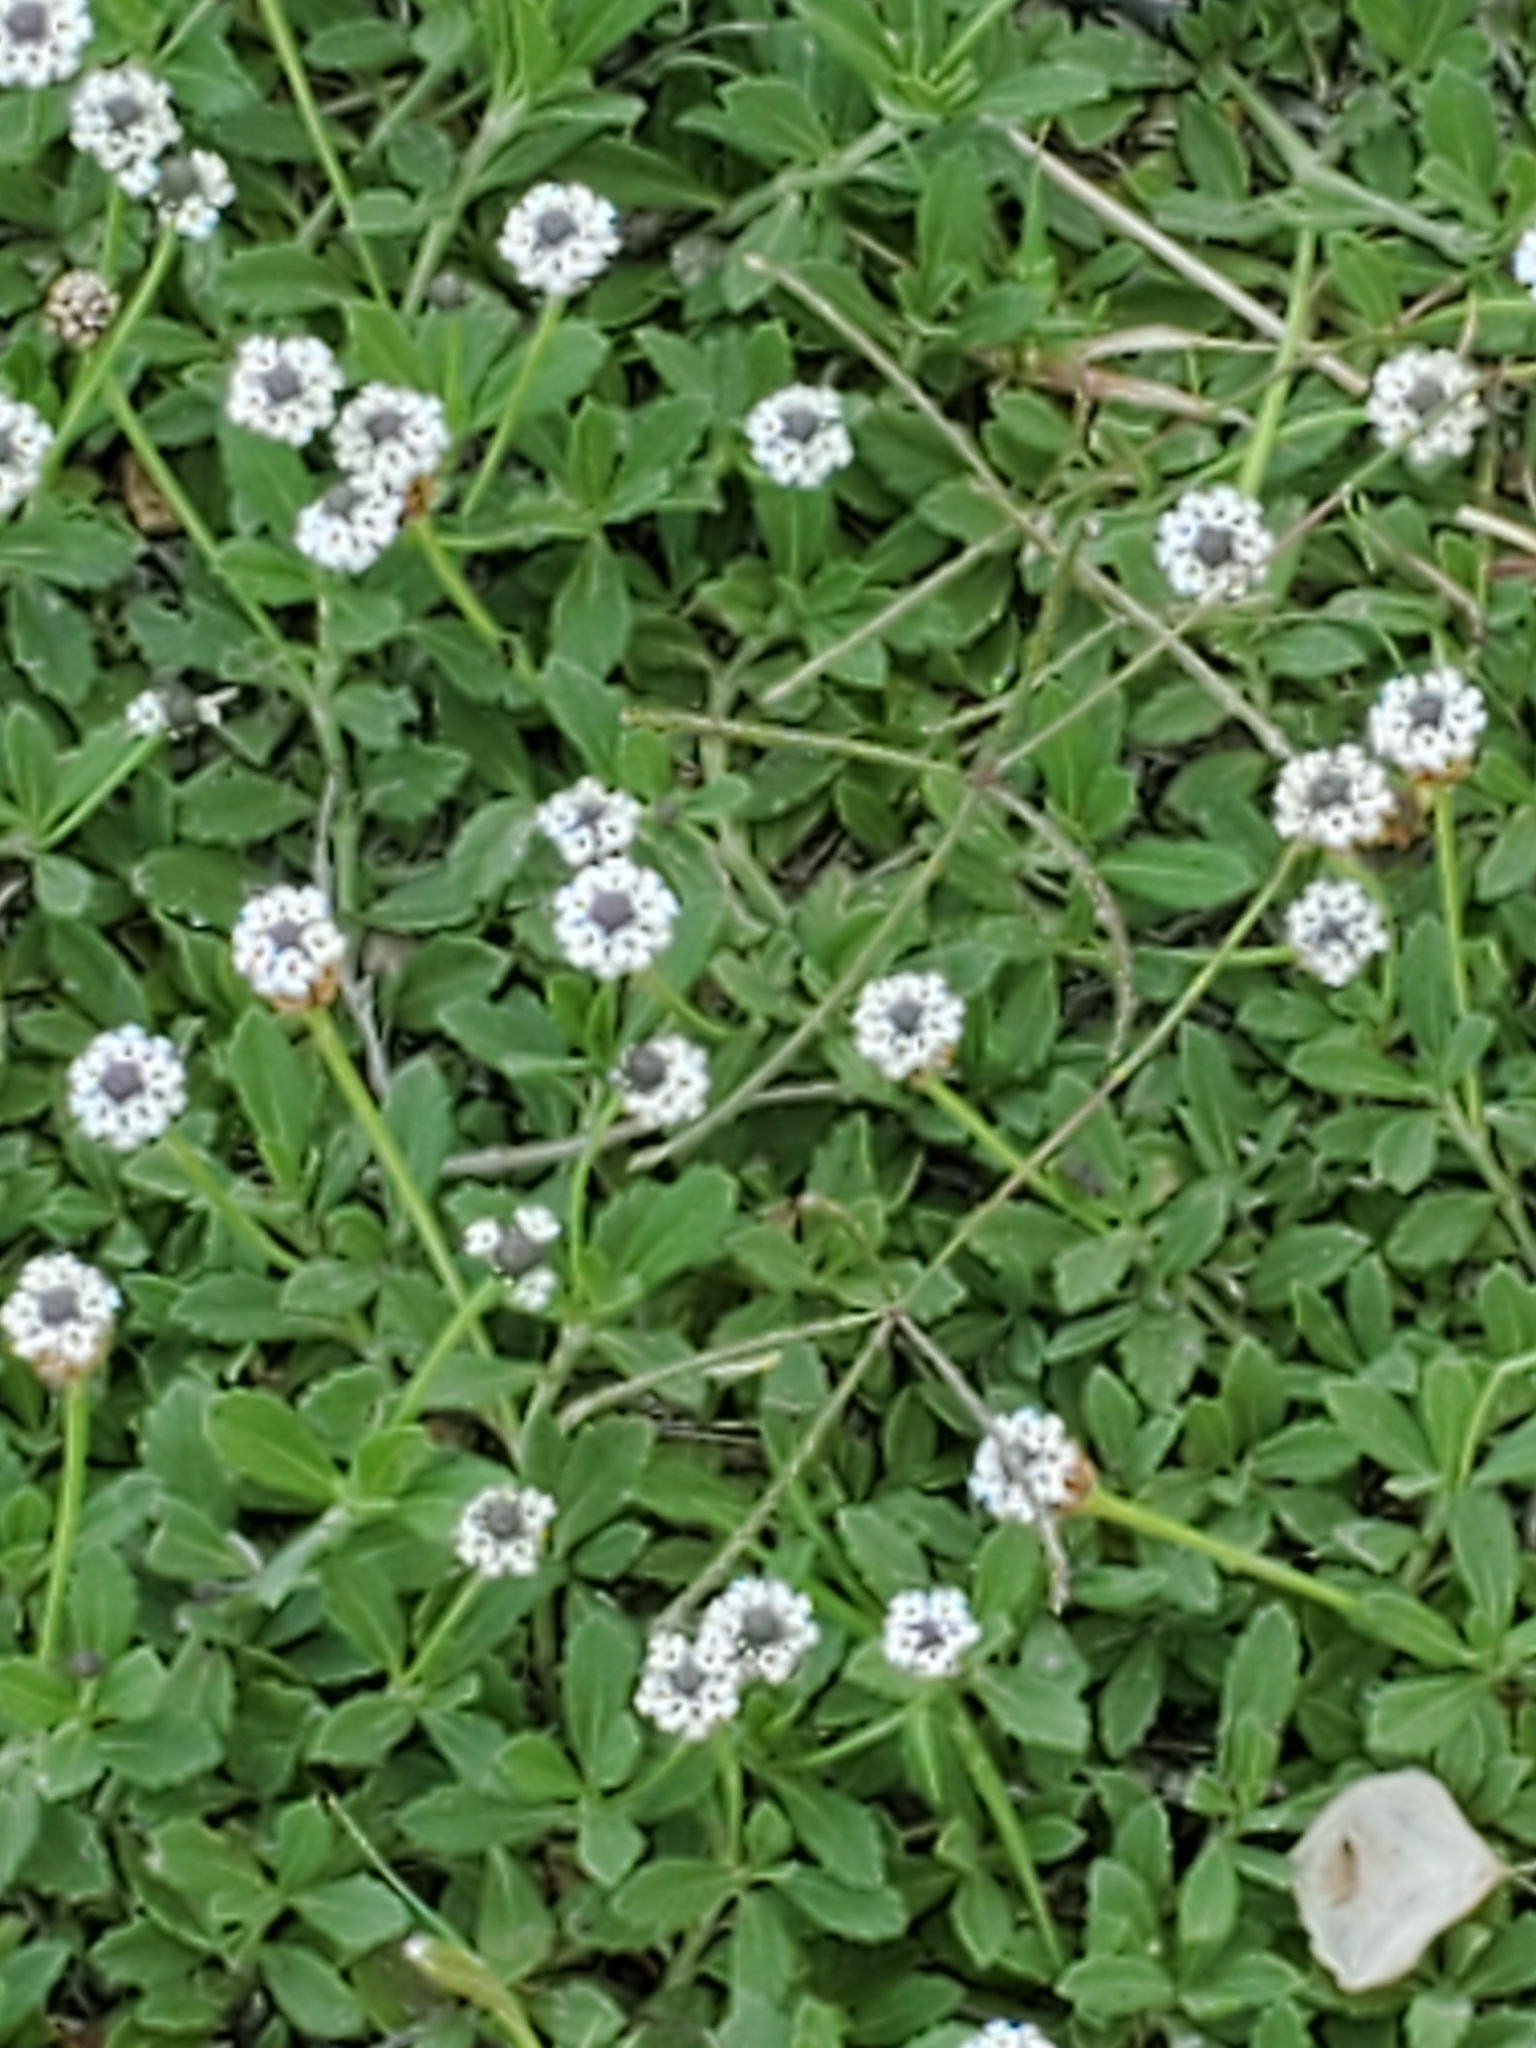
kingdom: Plantae
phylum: Tracheophyta
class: Magnoliopsida
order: Lamiales
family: Verbenaceae
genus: Phyla
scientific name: Phyla nodiflora
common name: Frogfruit
